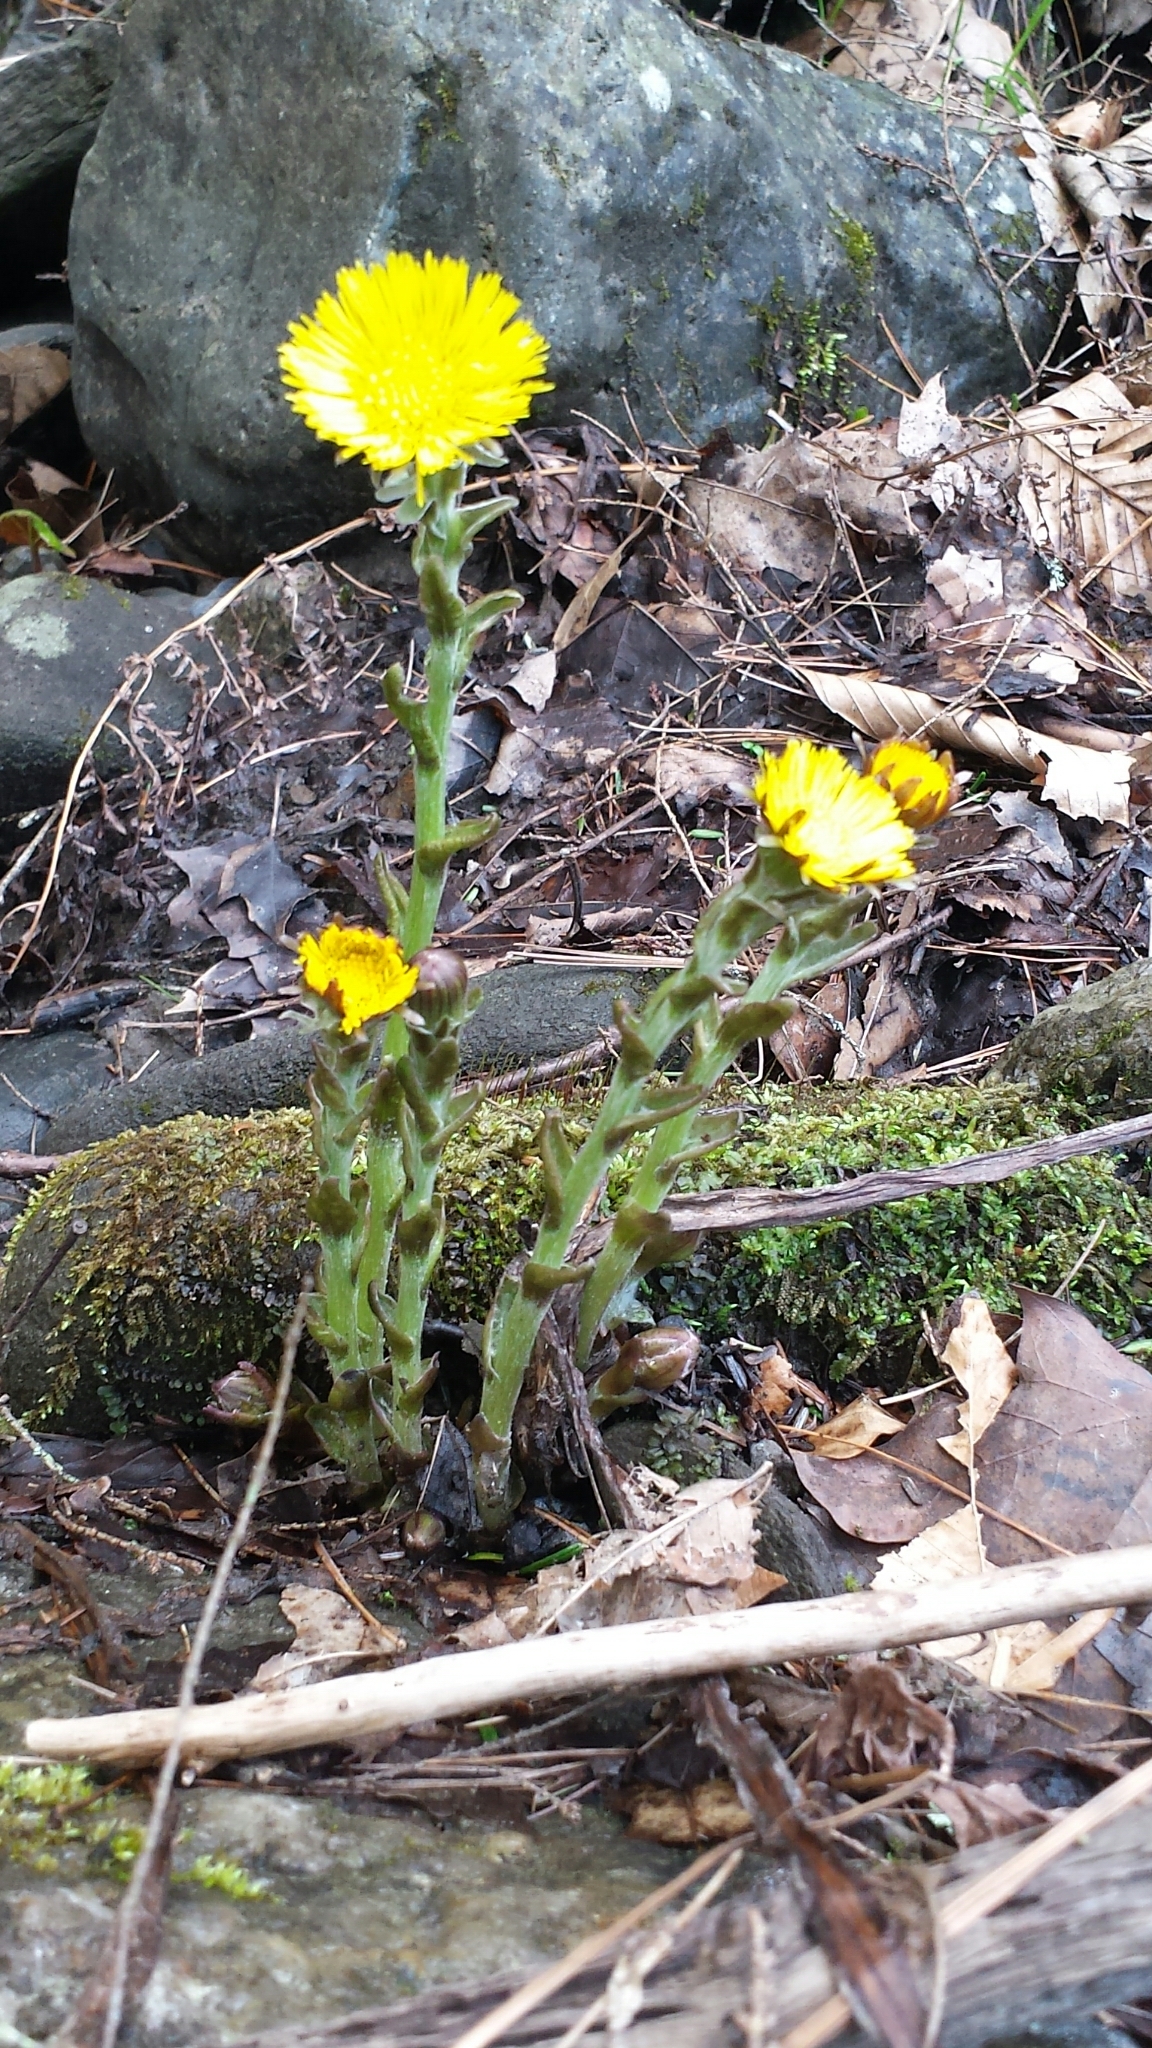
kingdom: Plantae
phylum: Tracheophyta
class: Magnoliopsida
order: Asterales
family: Asteraceae
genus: Tussilago
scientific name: Tussilago farfara
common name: Coltsfoot
